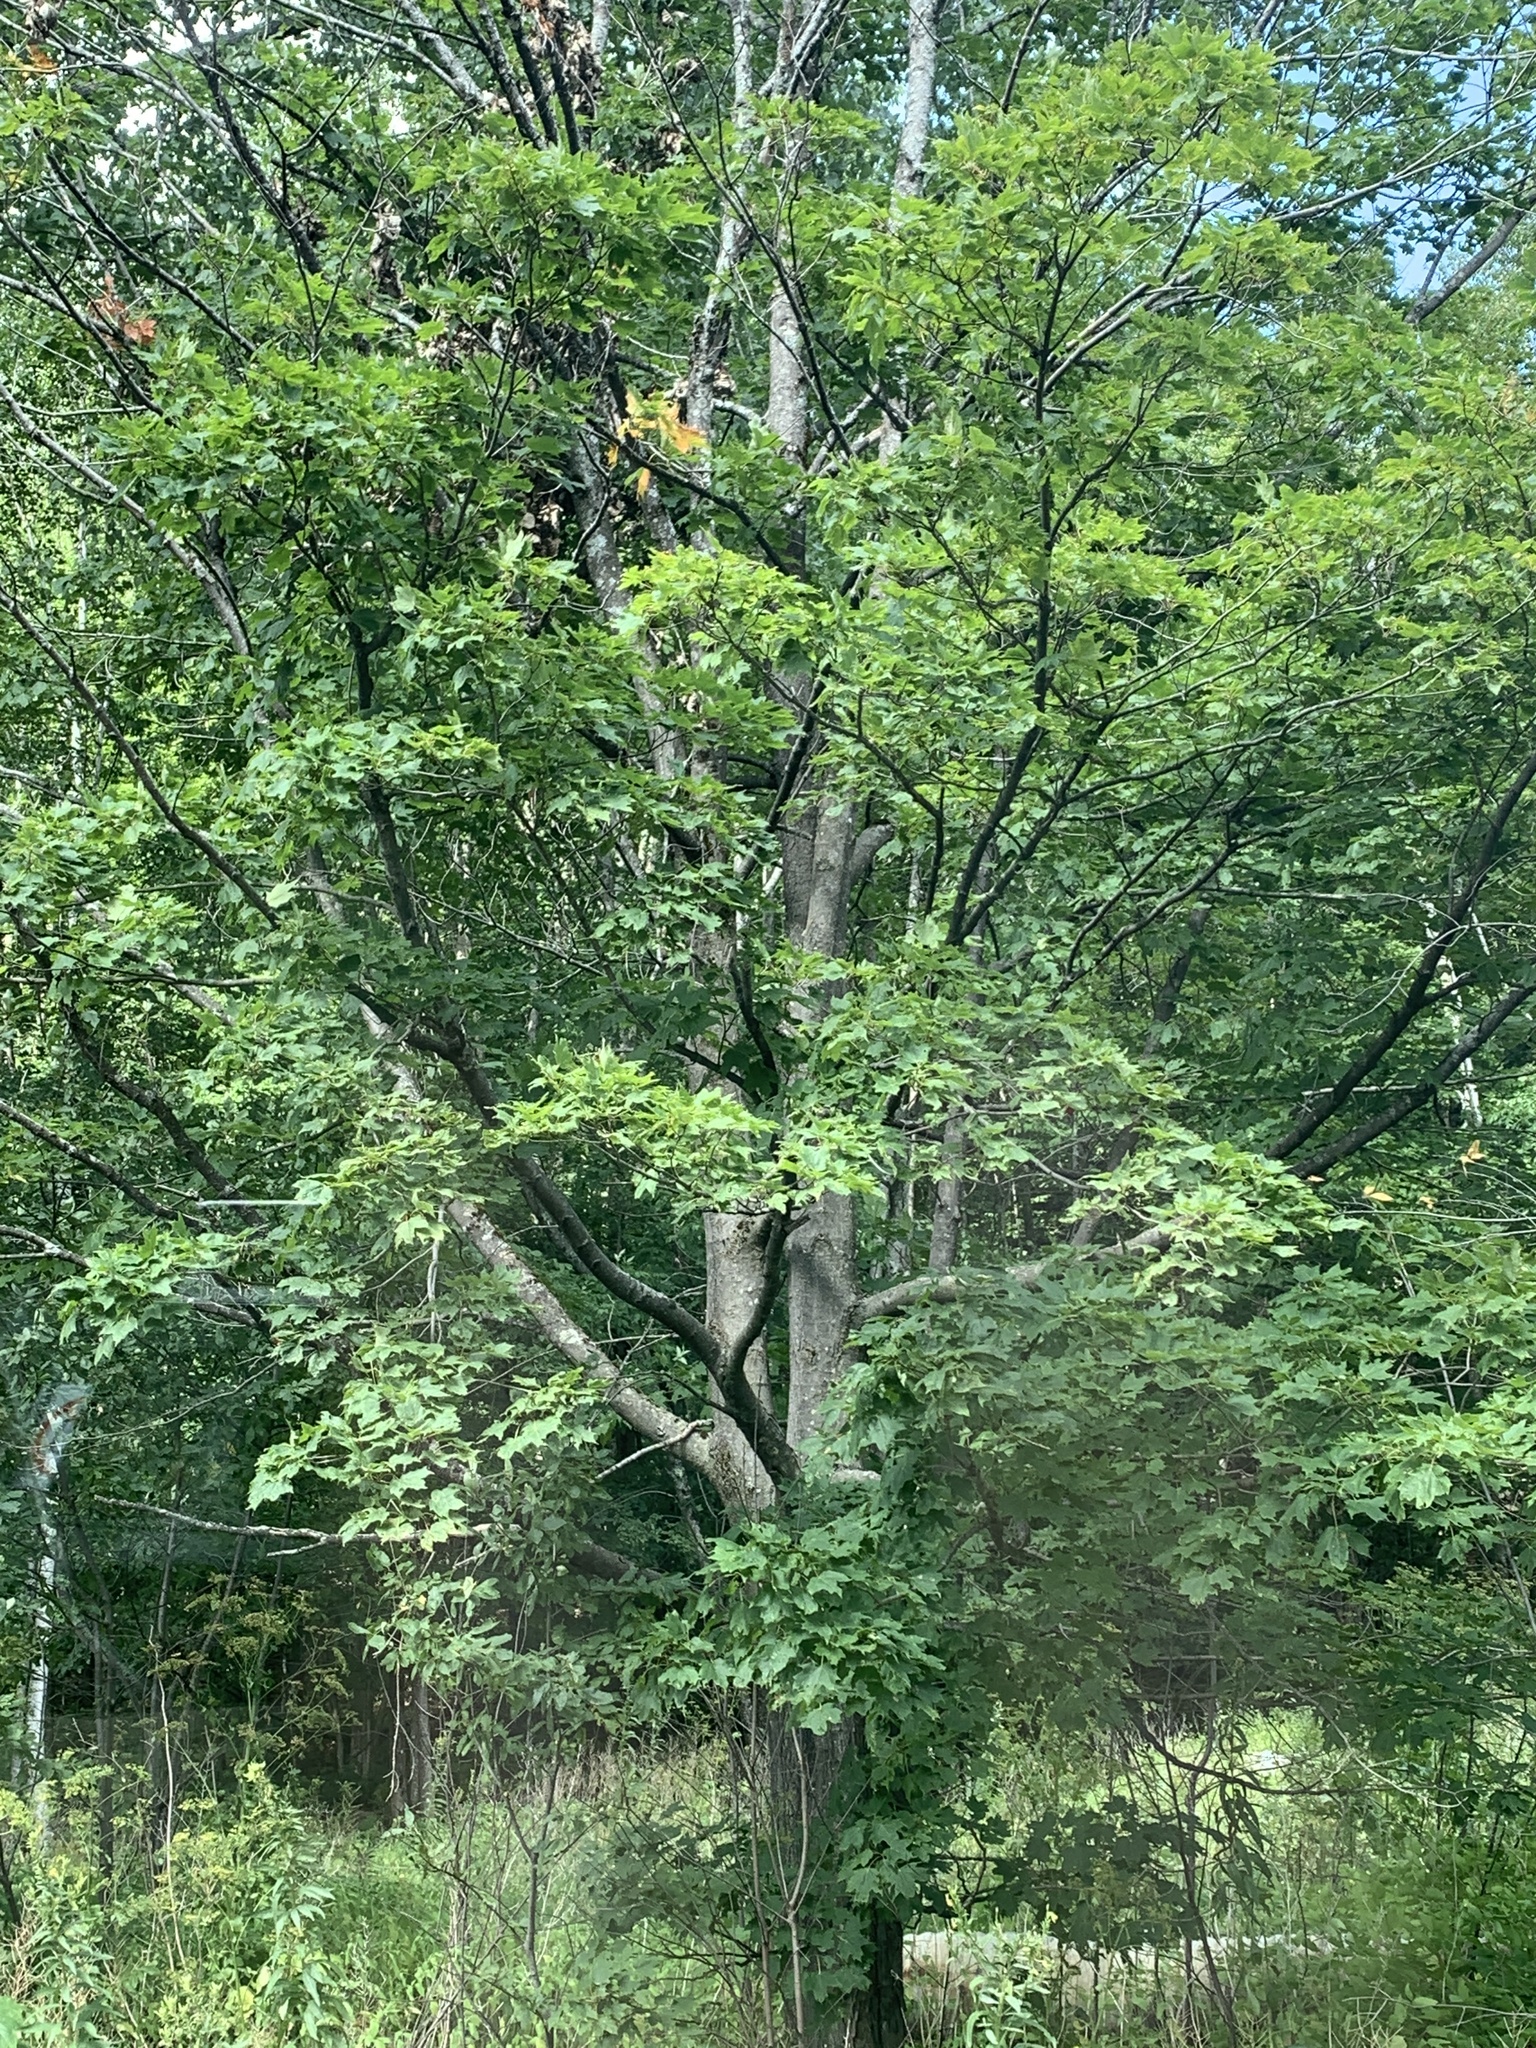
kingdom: Plantae
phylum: Tracheophyta
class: Magnoliopsida
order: Sapindales
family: Sapindaceae
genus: Acer
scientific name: Acer saccharum
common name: Sugar maple
